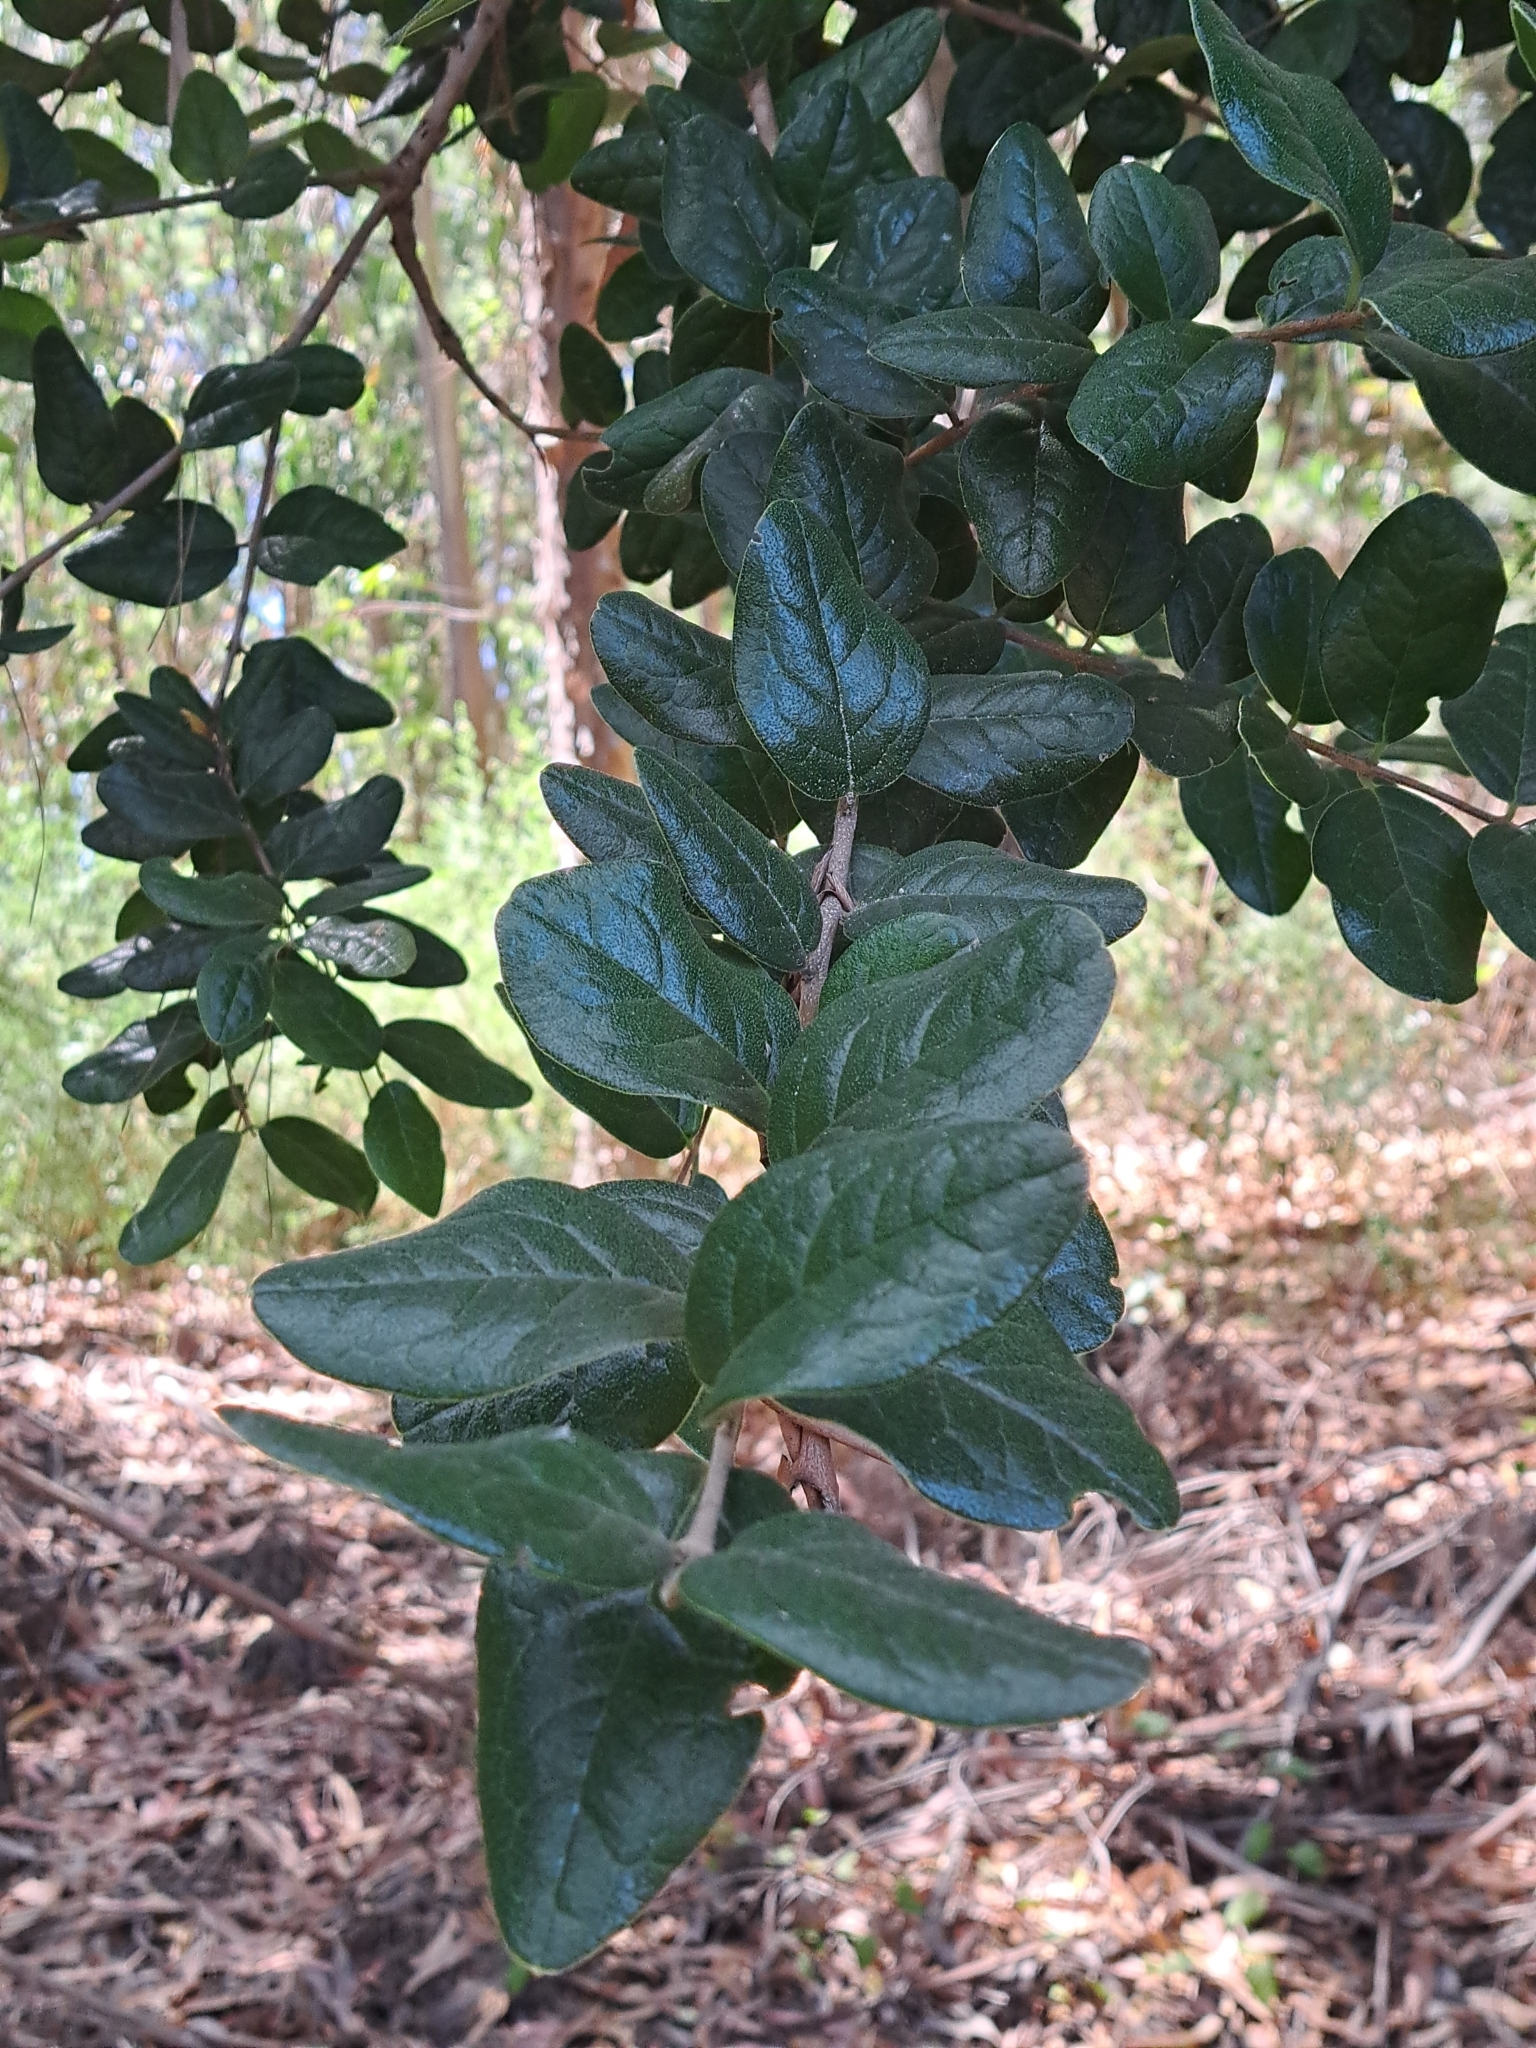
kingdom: Plantae
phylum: Tracheophyta
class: Magnoliopsida
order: Laurales
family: Monimiaceae
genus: Peumus
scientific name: Peumus boldus
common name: Boldo
